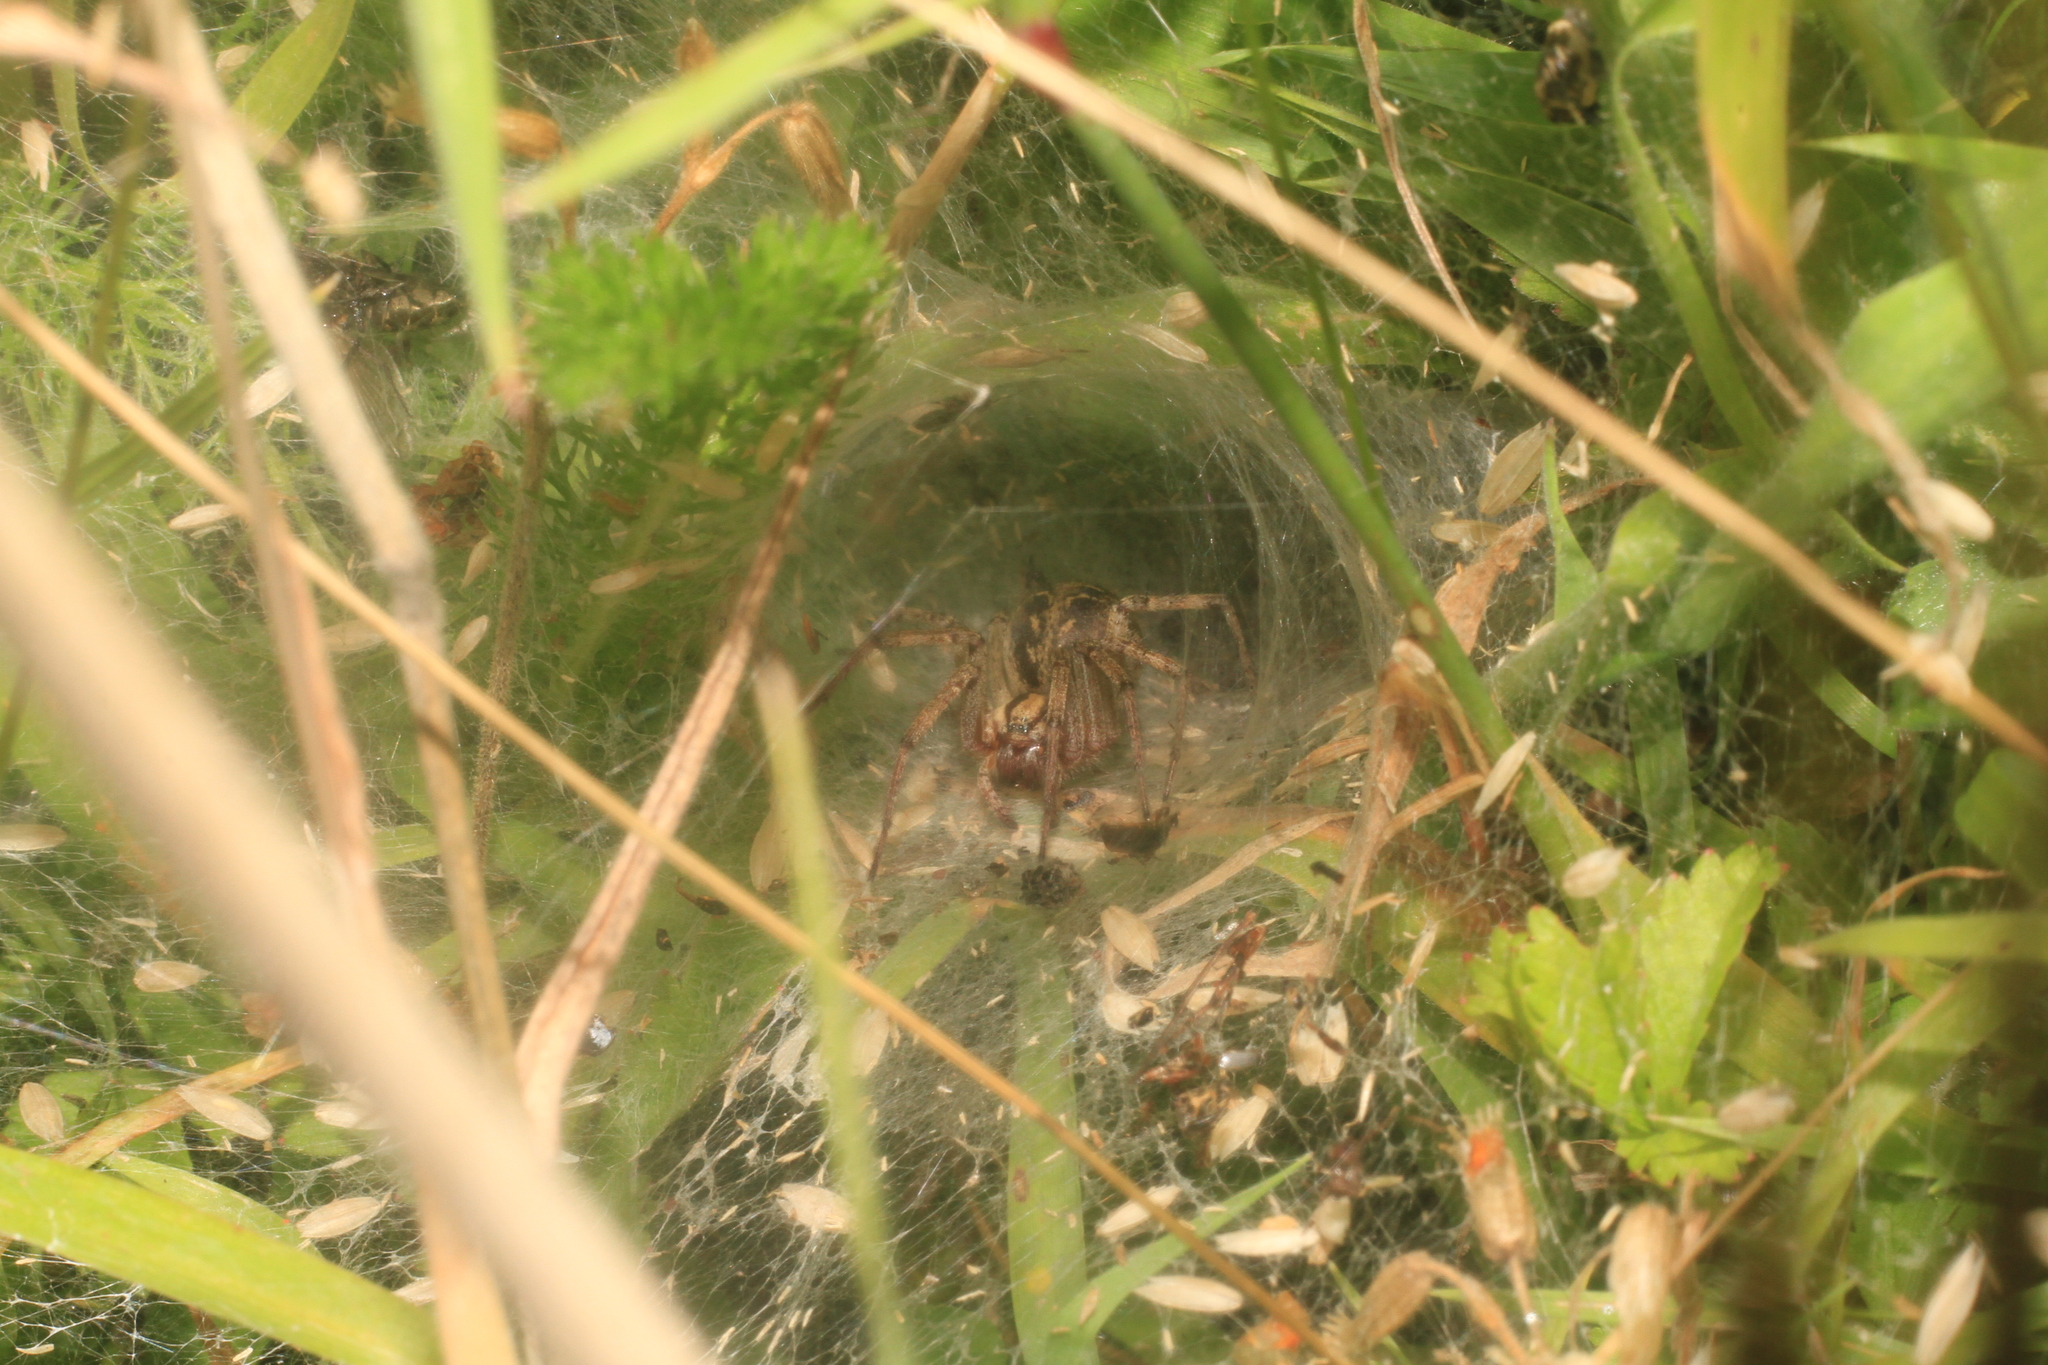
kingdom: Animalia
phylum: Arthropoda
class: Arachnida
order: Araneae
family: Agelenidae
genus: Agelena
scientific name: Agelena labyrinthica
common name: Labyrinth spider
